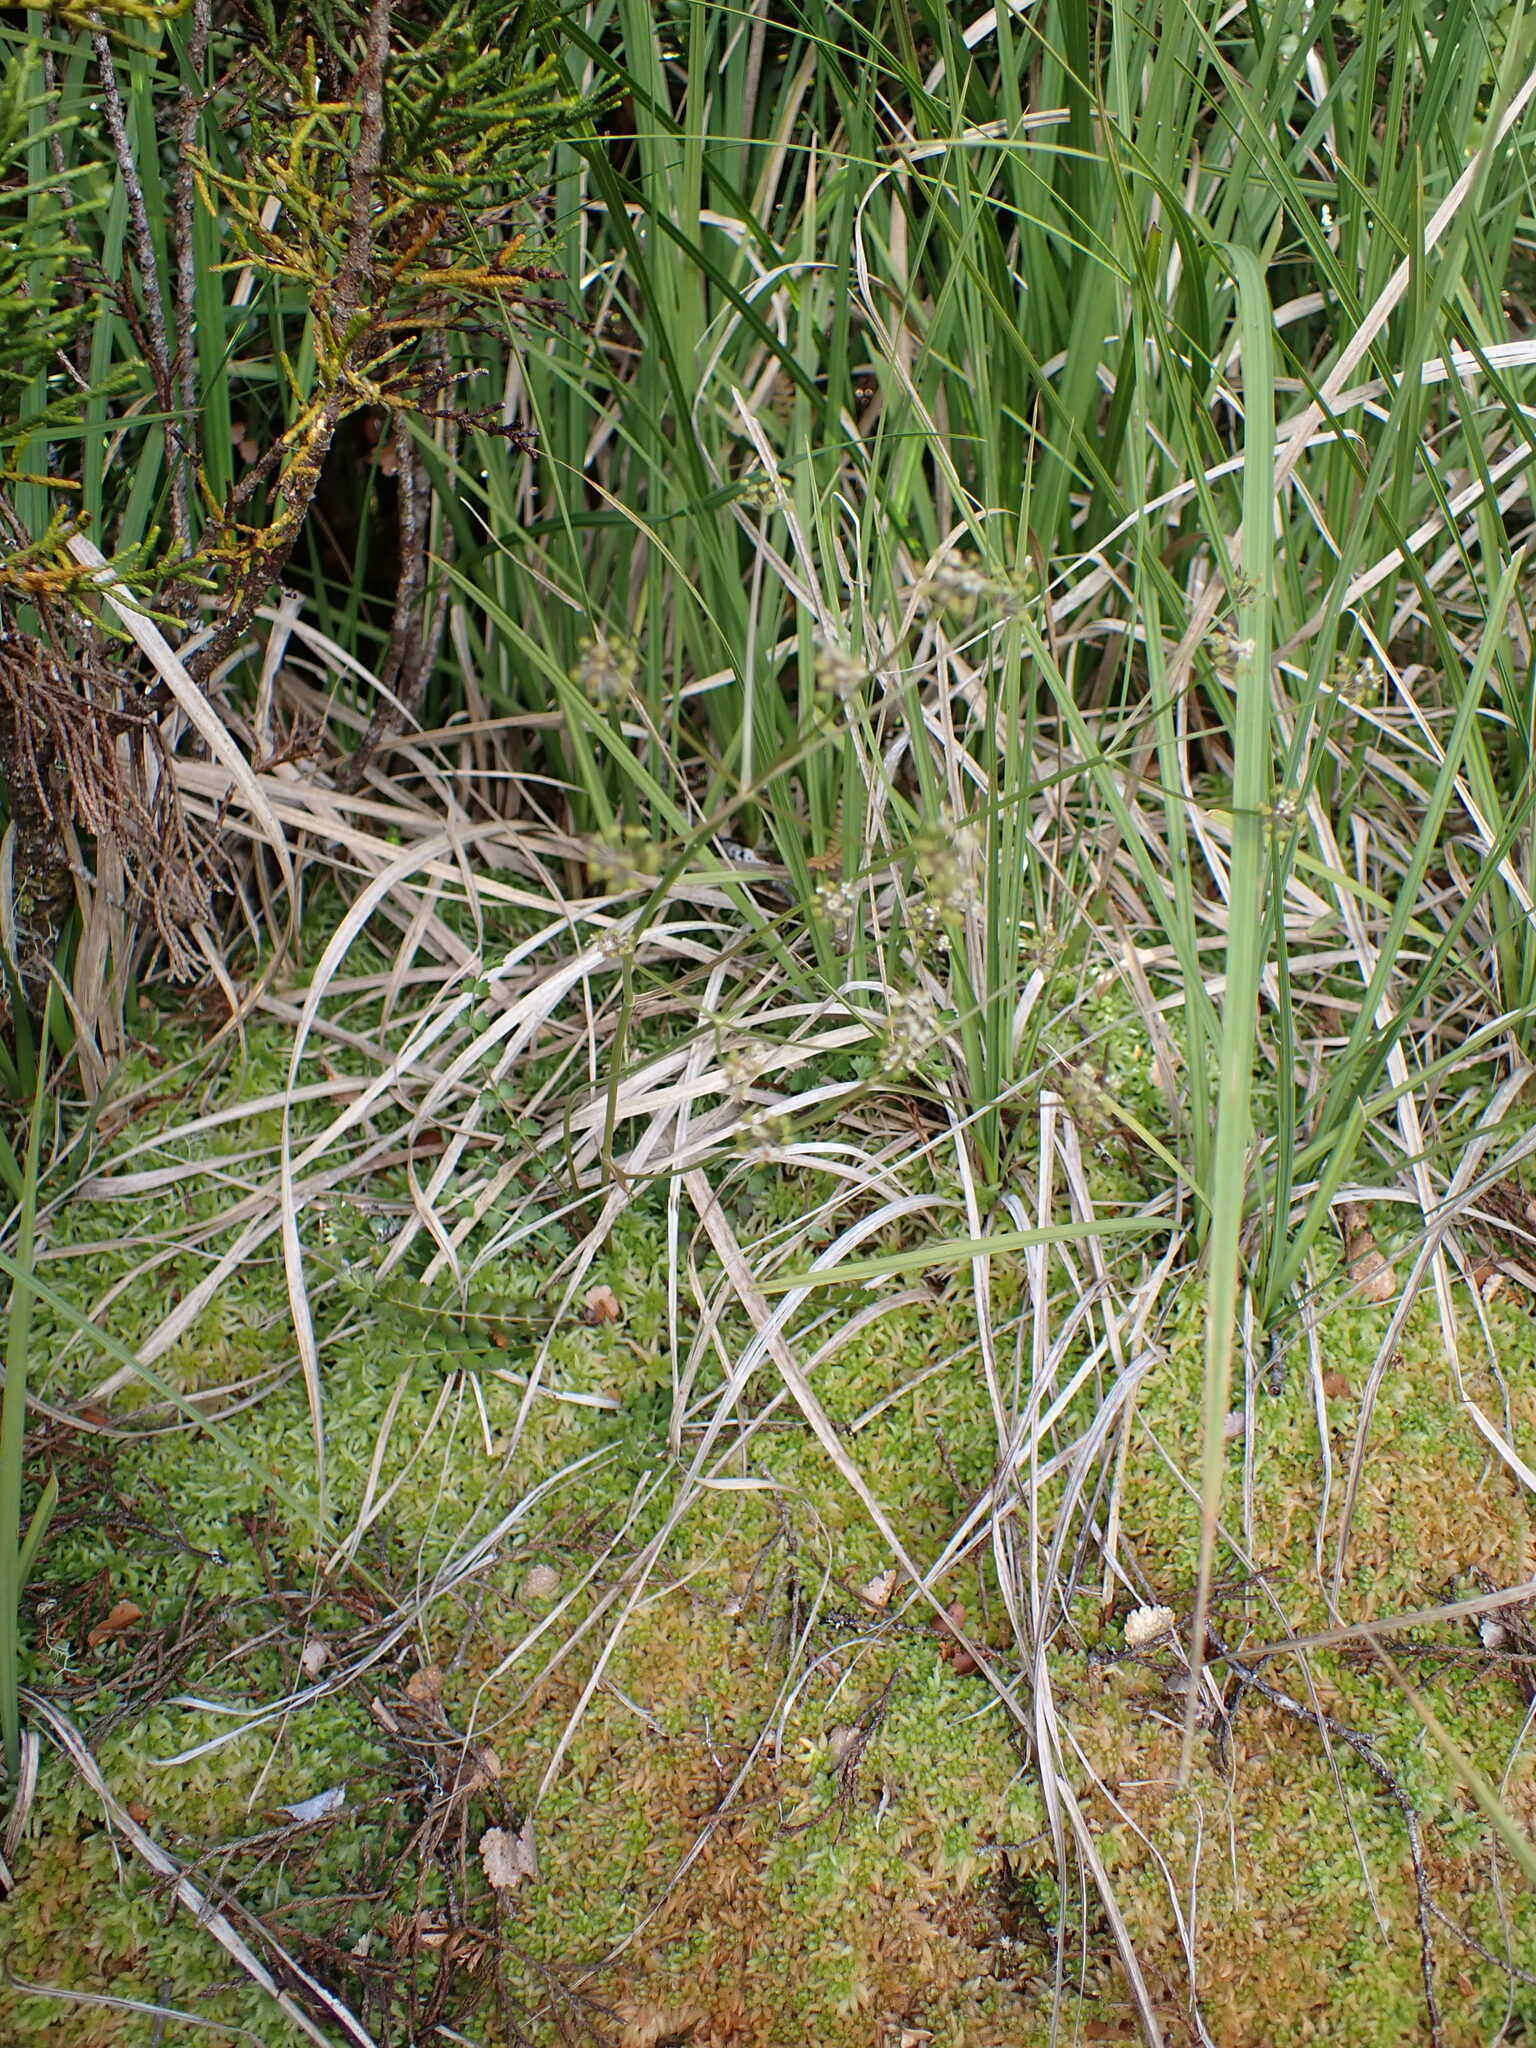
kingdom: Plantae
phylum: Tracheophyta
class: Magnoliopsida
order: Apiales
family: Apiaceae
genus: Anisotome
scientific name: Anisotome aromatica
